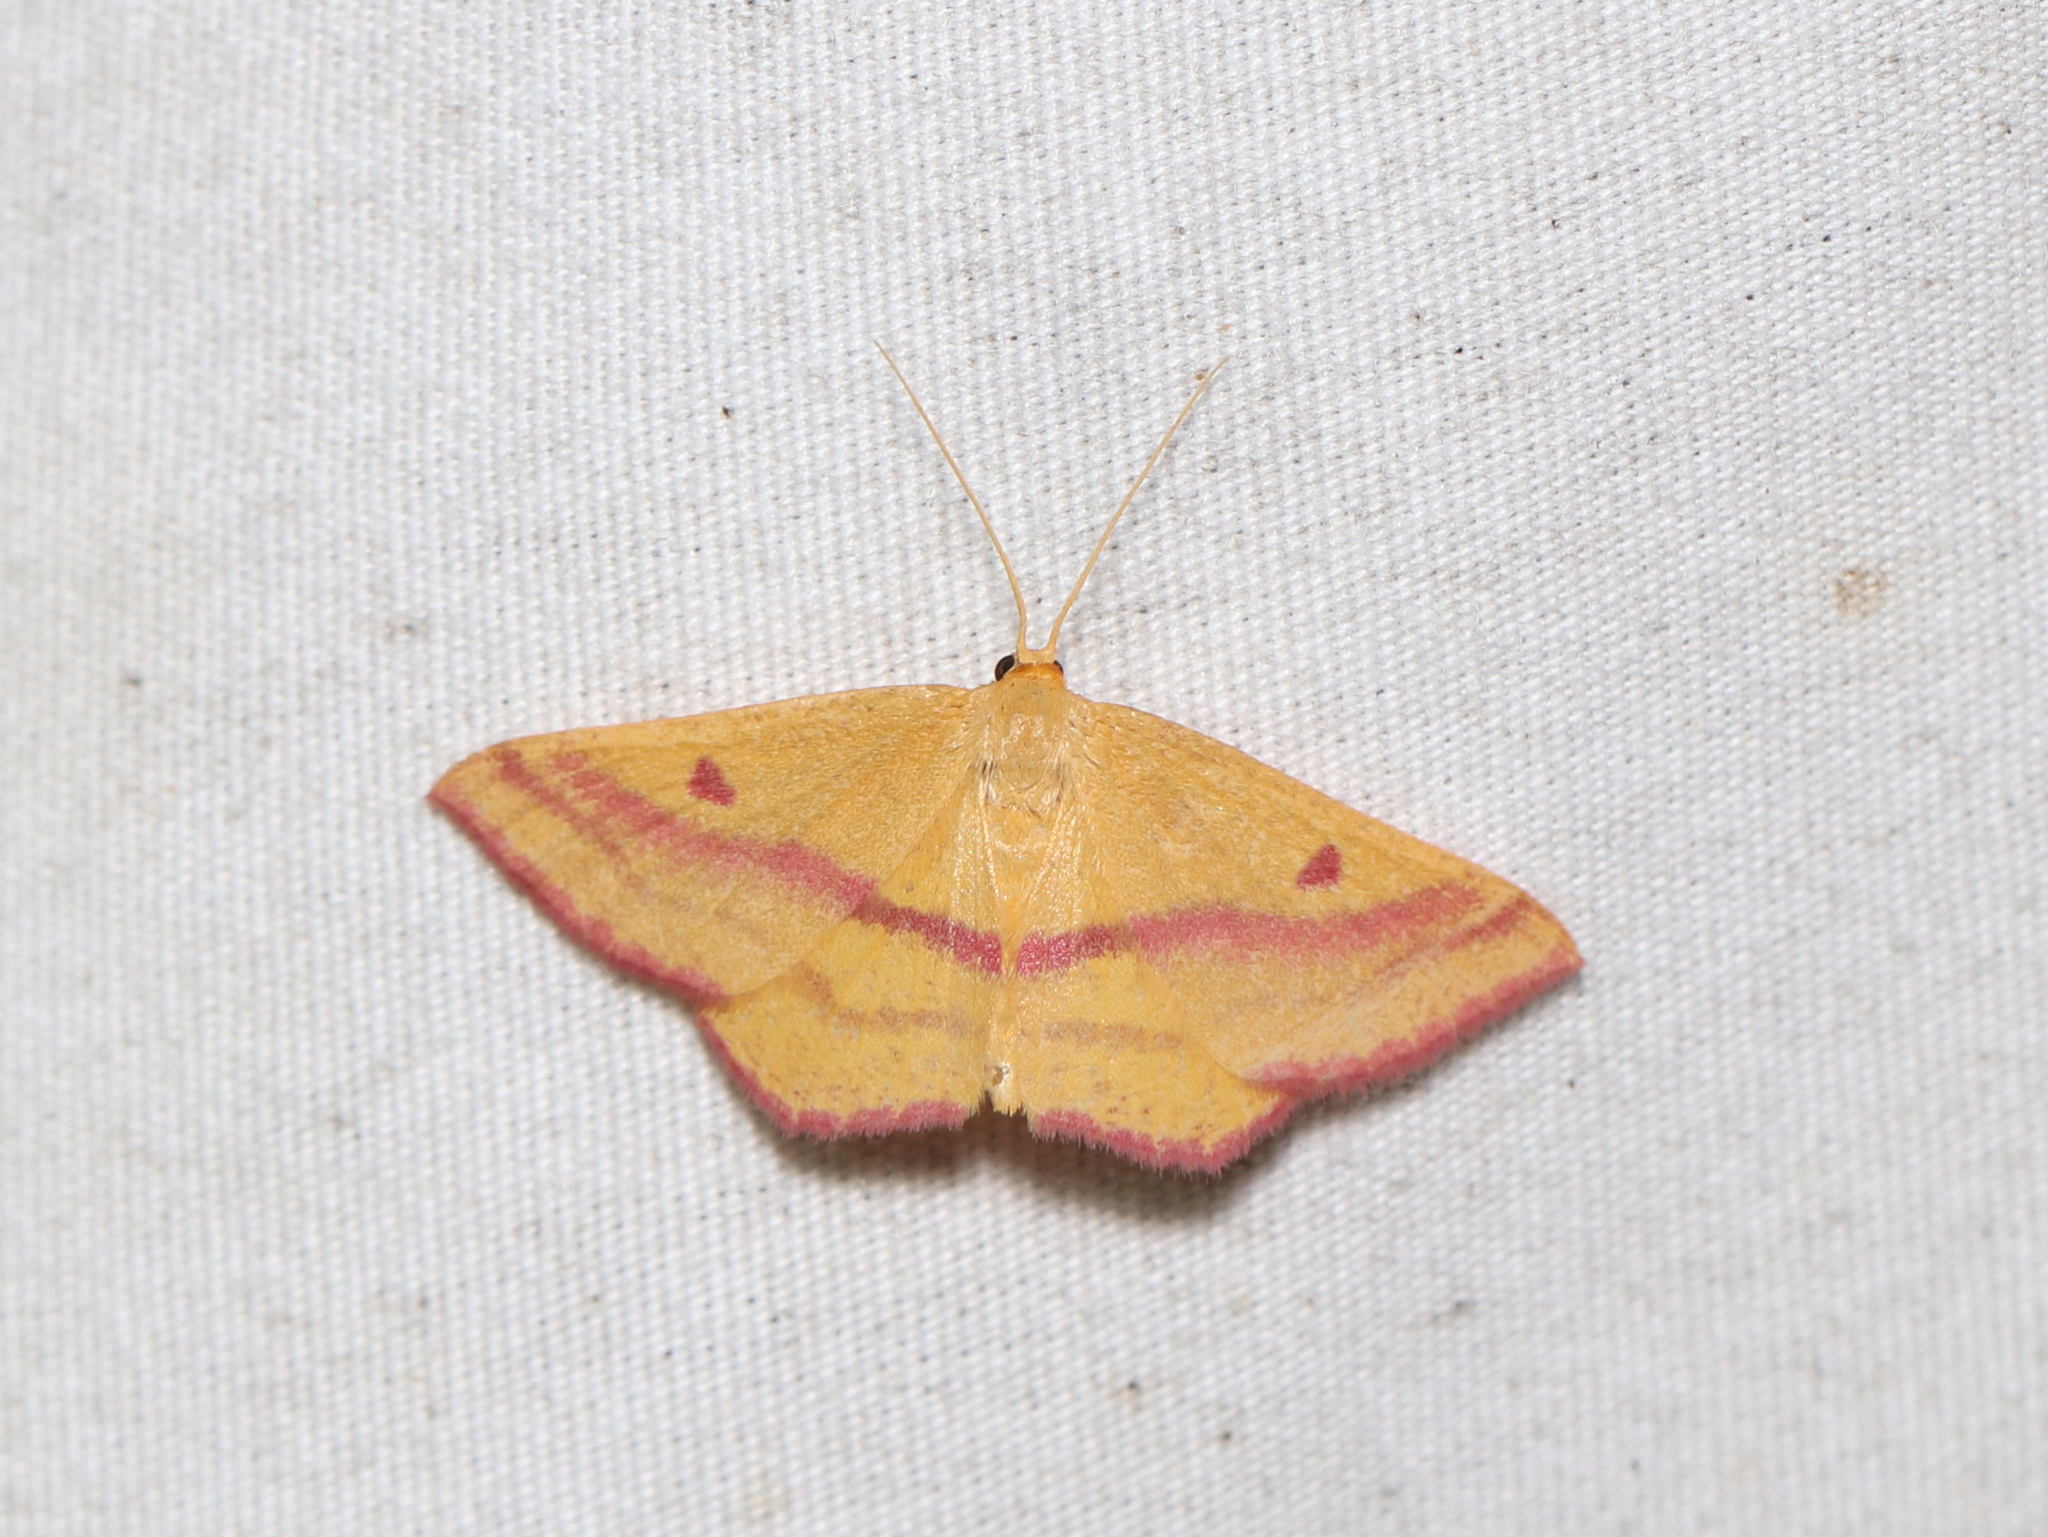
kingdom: Animalia
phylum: Arthropoda
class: Insecta
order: Lepidoptera
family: Geometridae
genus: Haematopis
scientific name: Haematopis grataria
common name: Chickweed geometer
